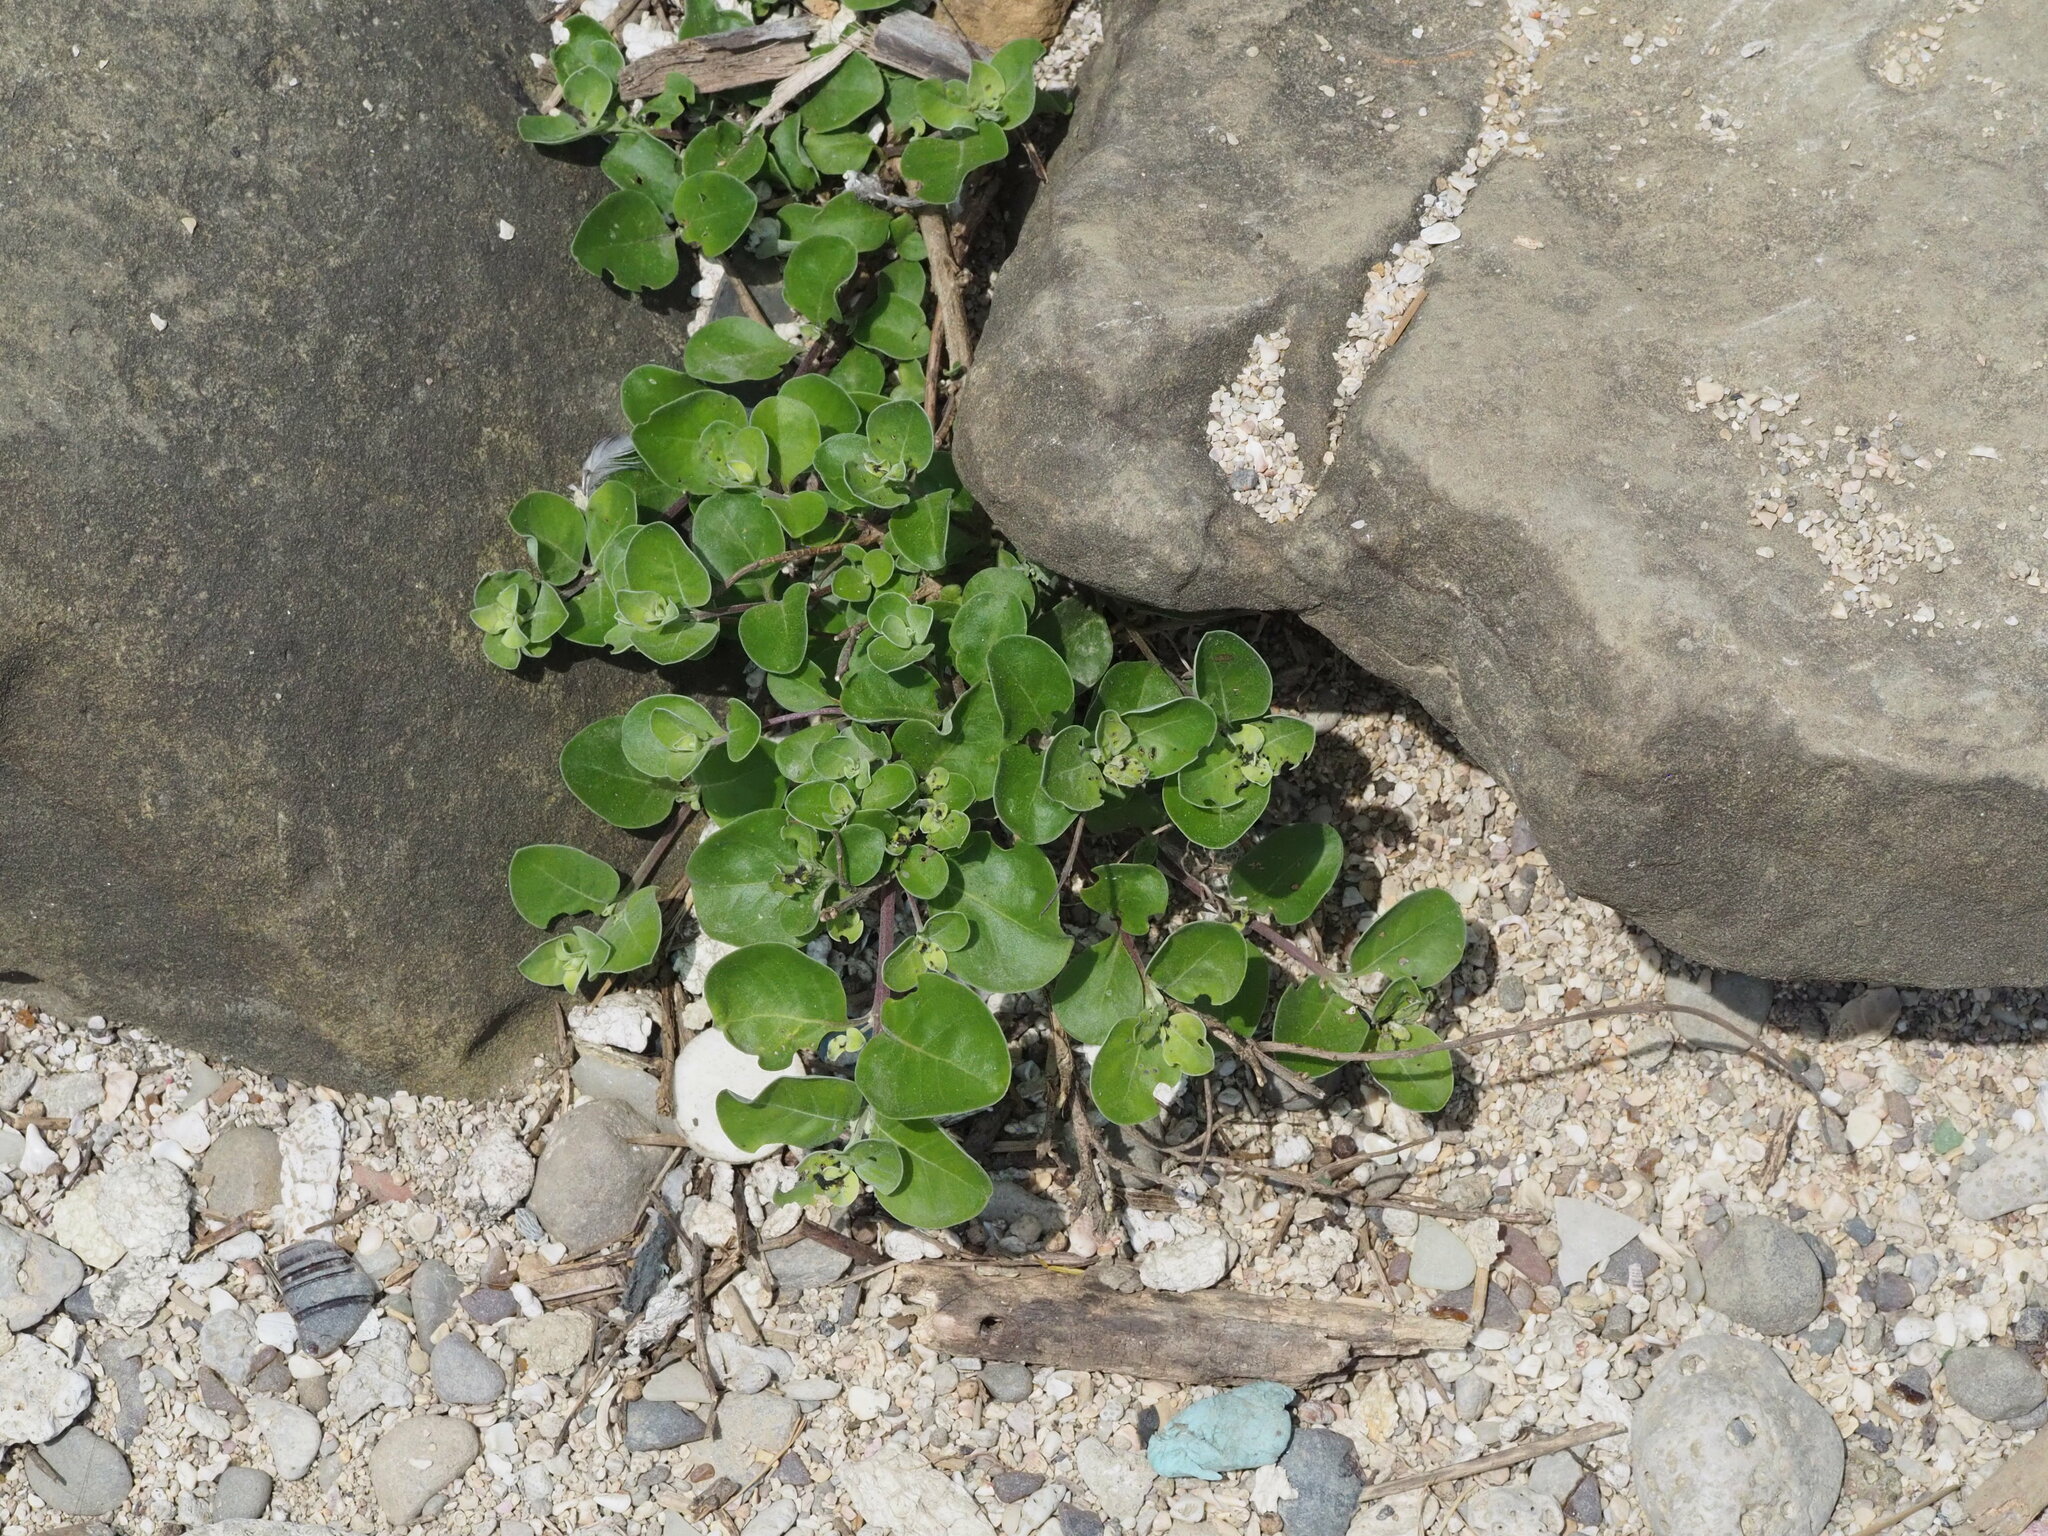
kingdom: Plantae
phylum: Tracheophyta
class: Magnoliopsida
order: Lamiales
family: Lamiaceae
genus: Vitex
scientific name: Vitex rotundifolia
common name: Beach vitex
